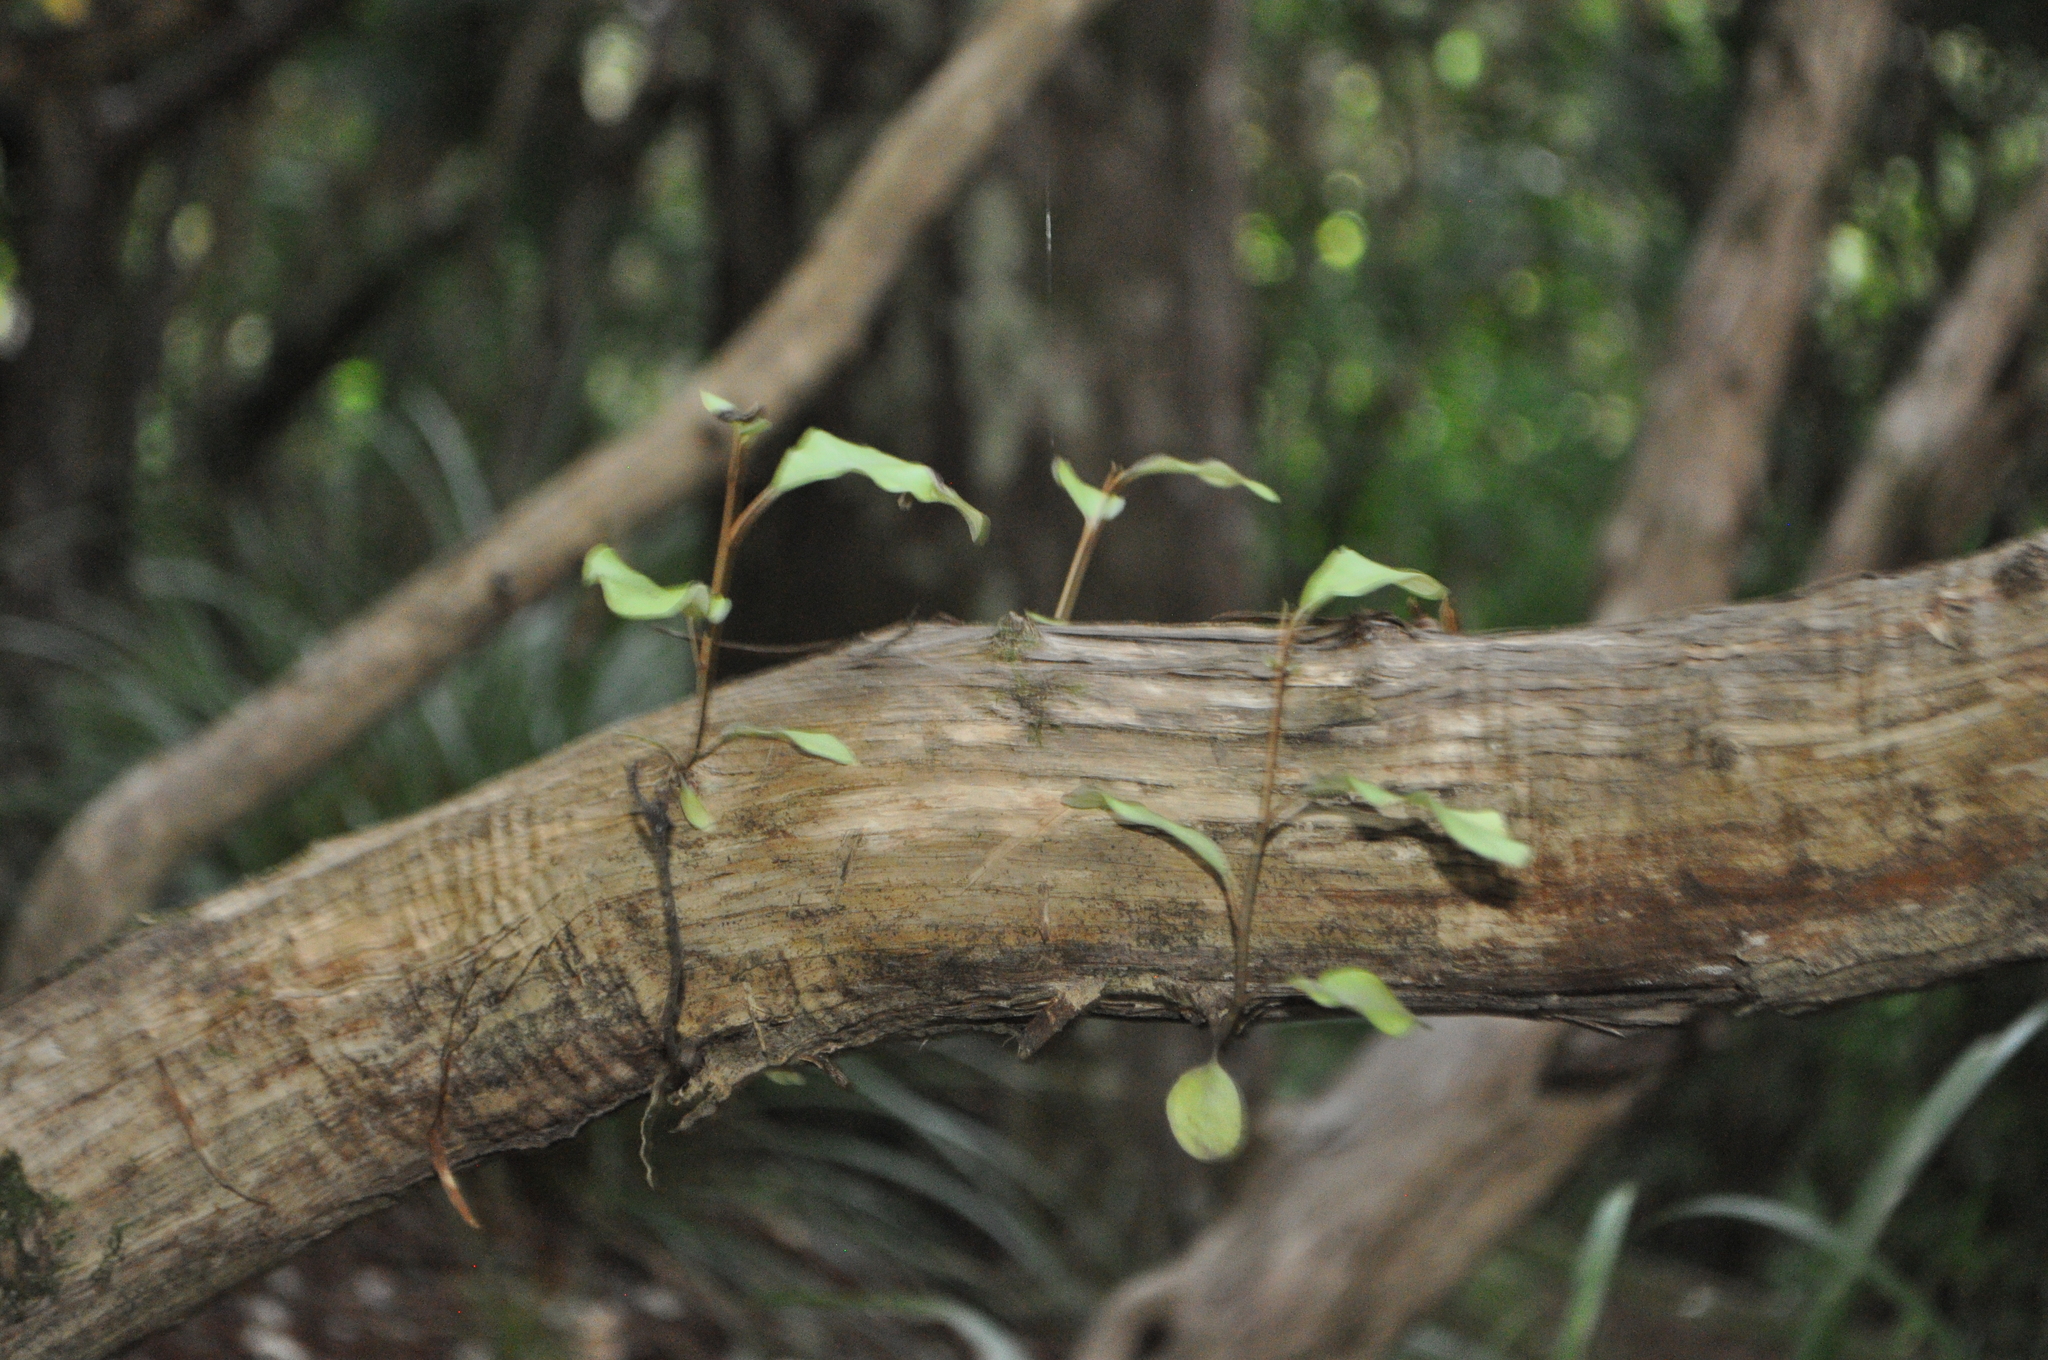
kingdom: Plantae
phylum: Tracheophyta
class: Magnoliopsida
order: Ericales
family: Primulaceae
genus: Myrsine
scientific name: Myrsine australis
